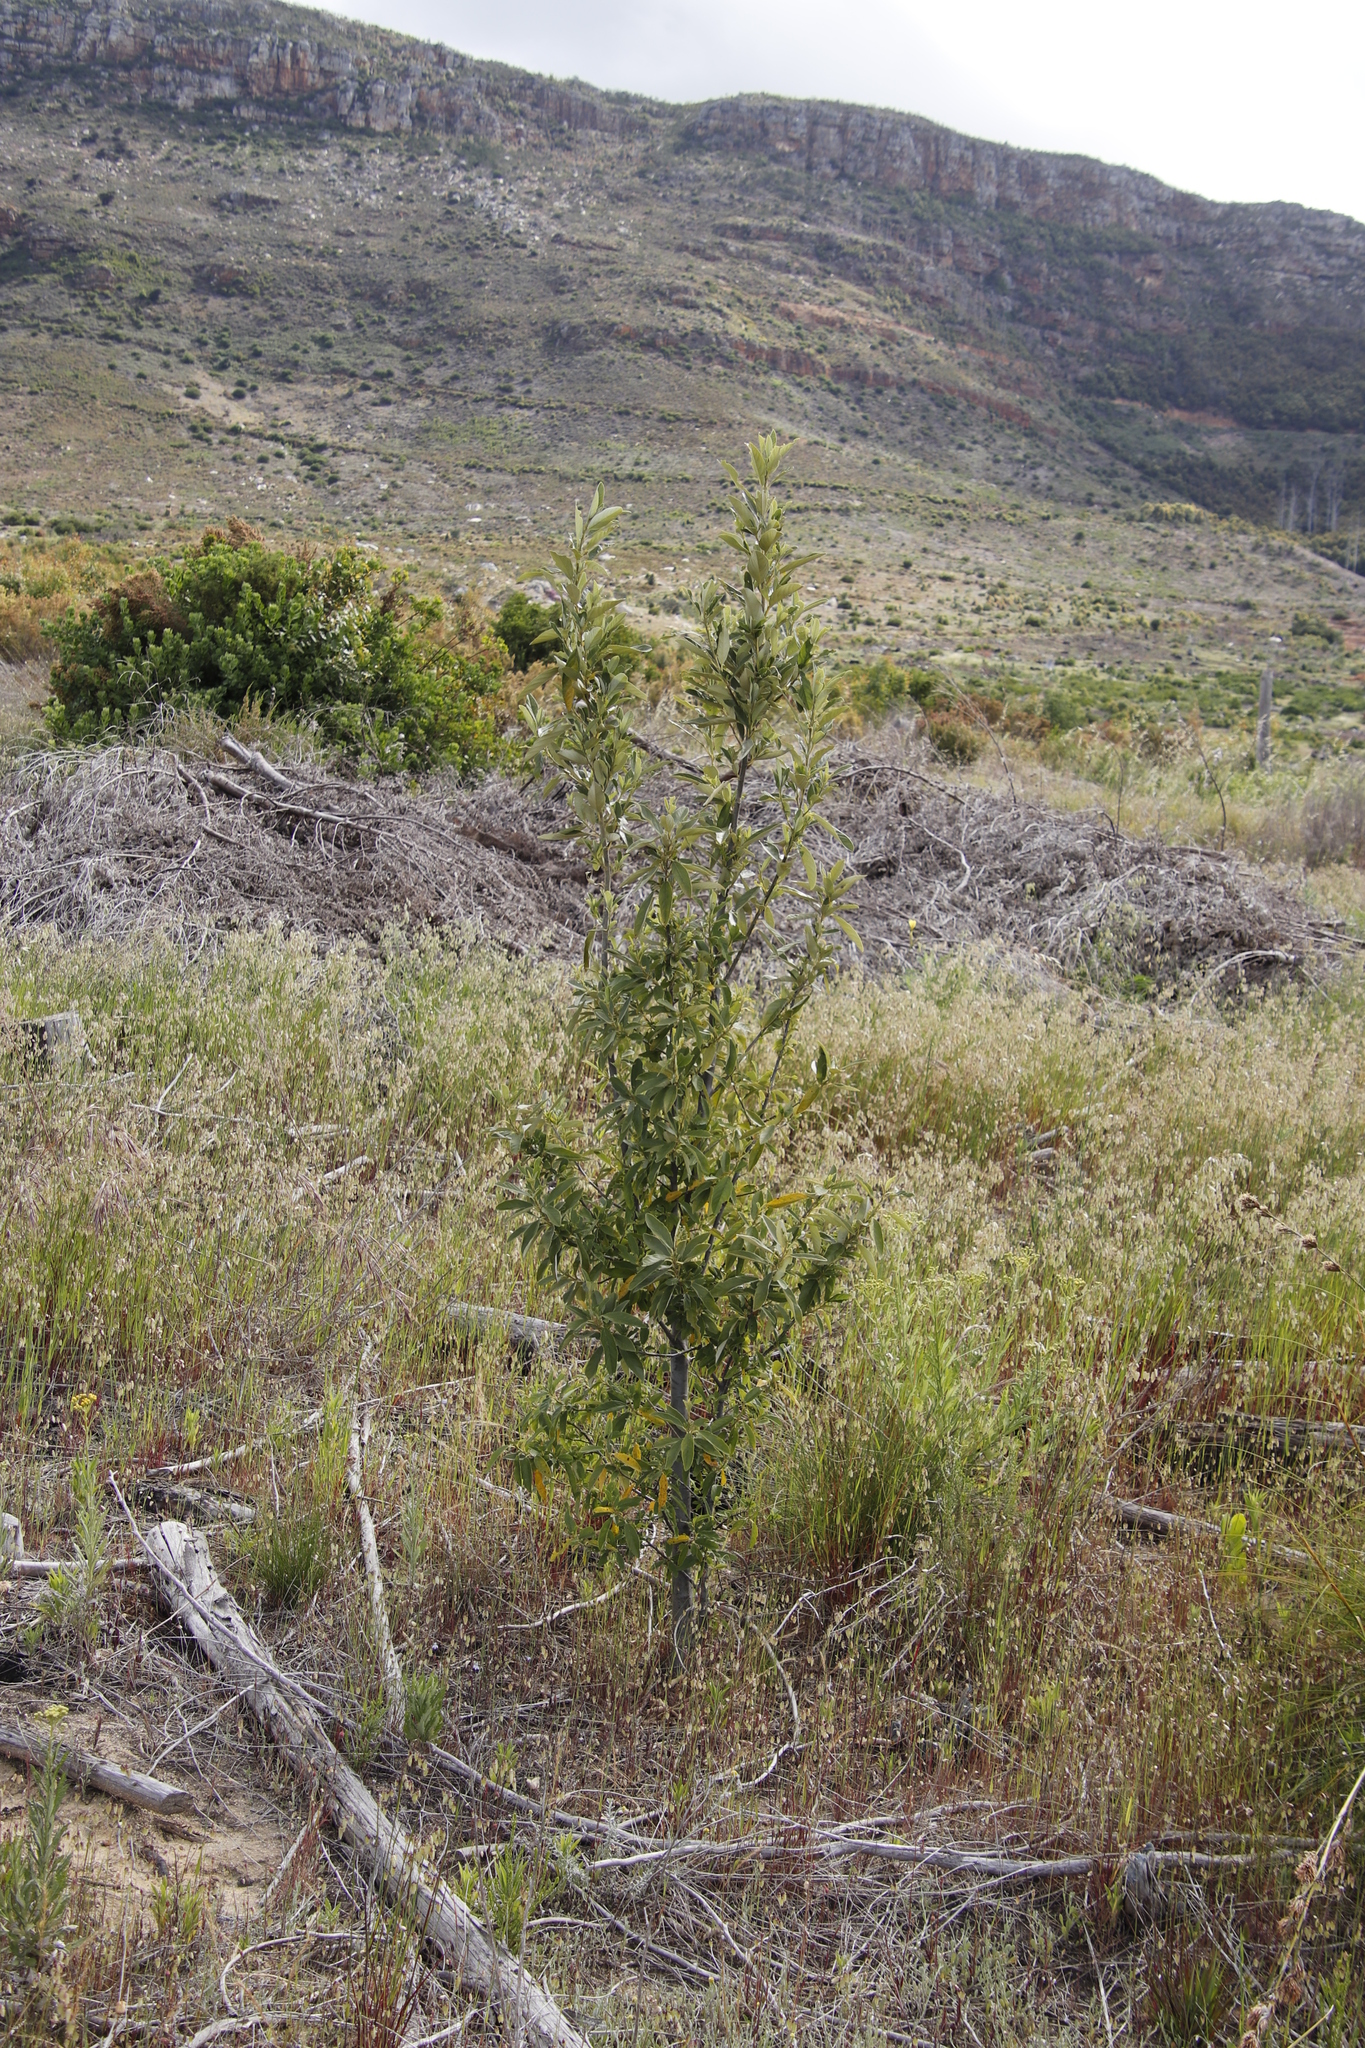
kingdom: Plantae
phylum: Tracheophyta
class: Magnoliopsida
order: Malpighiales
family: Achariaceae
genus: Kiggelaria
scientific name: Kiggelaria africana
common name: Wild peach
